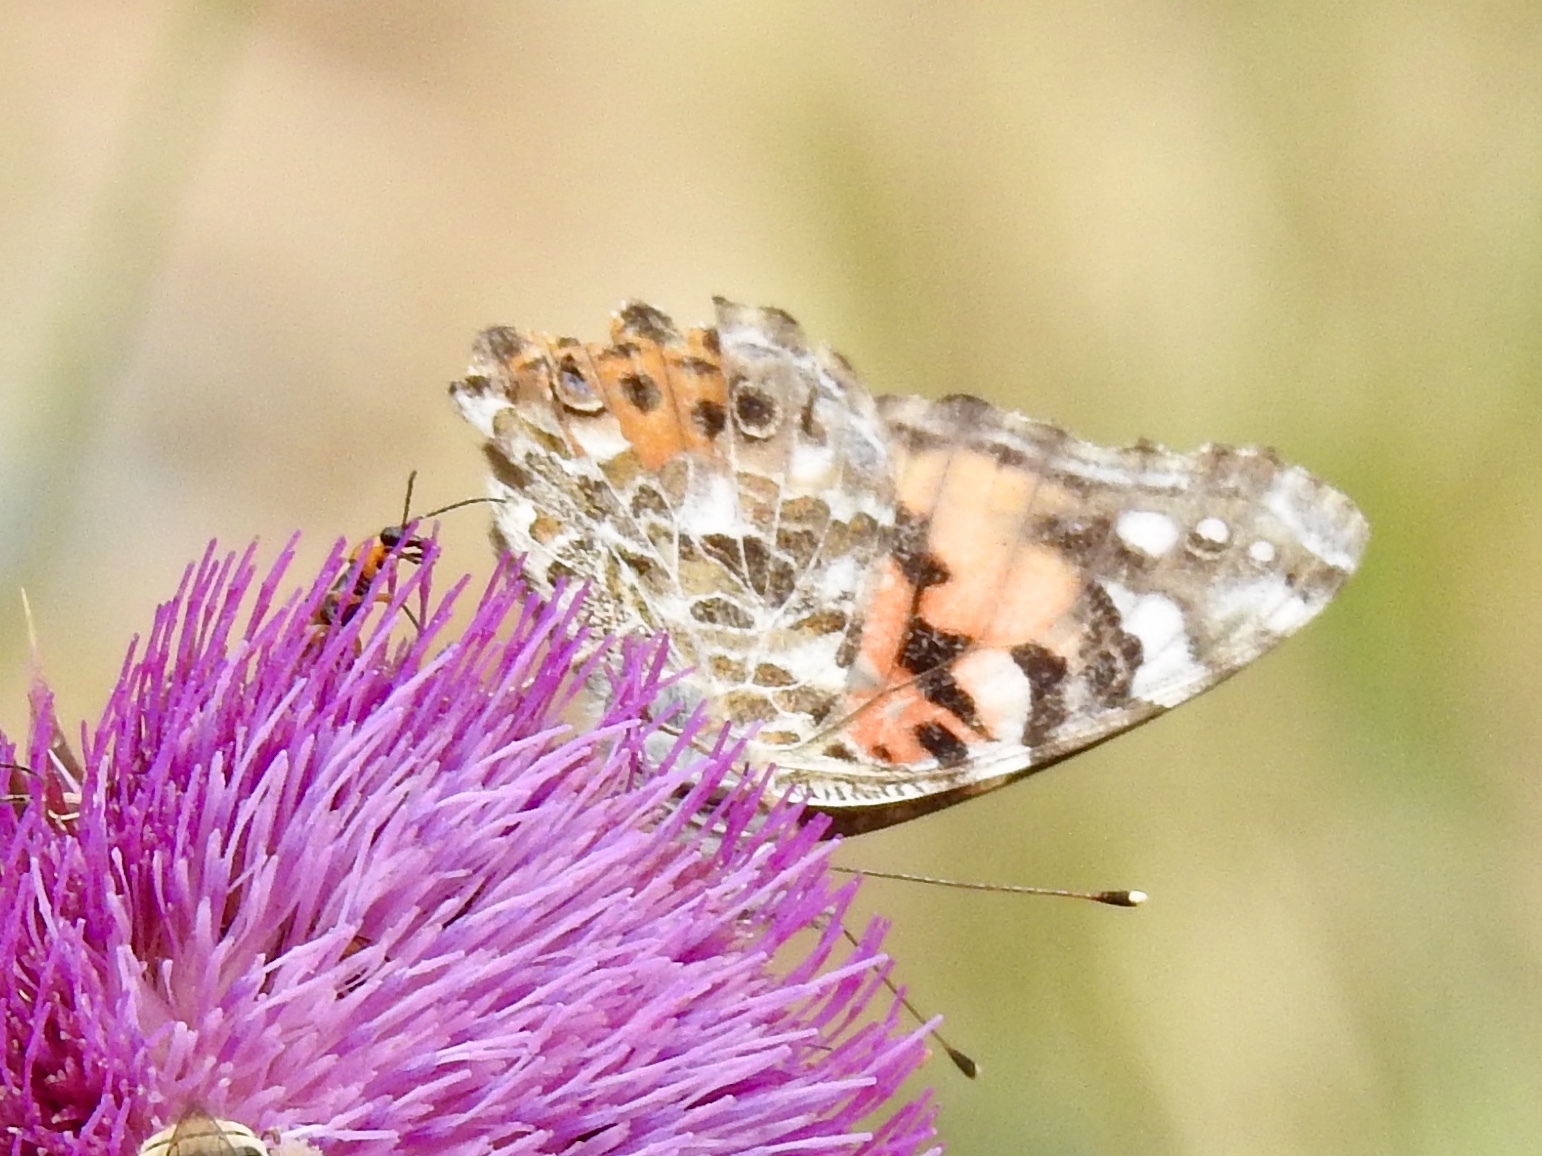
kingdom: Animalia
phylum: Arthropoda
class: Insecta
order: Lepidoptera
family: Nymphalidae
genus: Vanessa
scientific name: Vanessa cardui
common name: Painted lady
